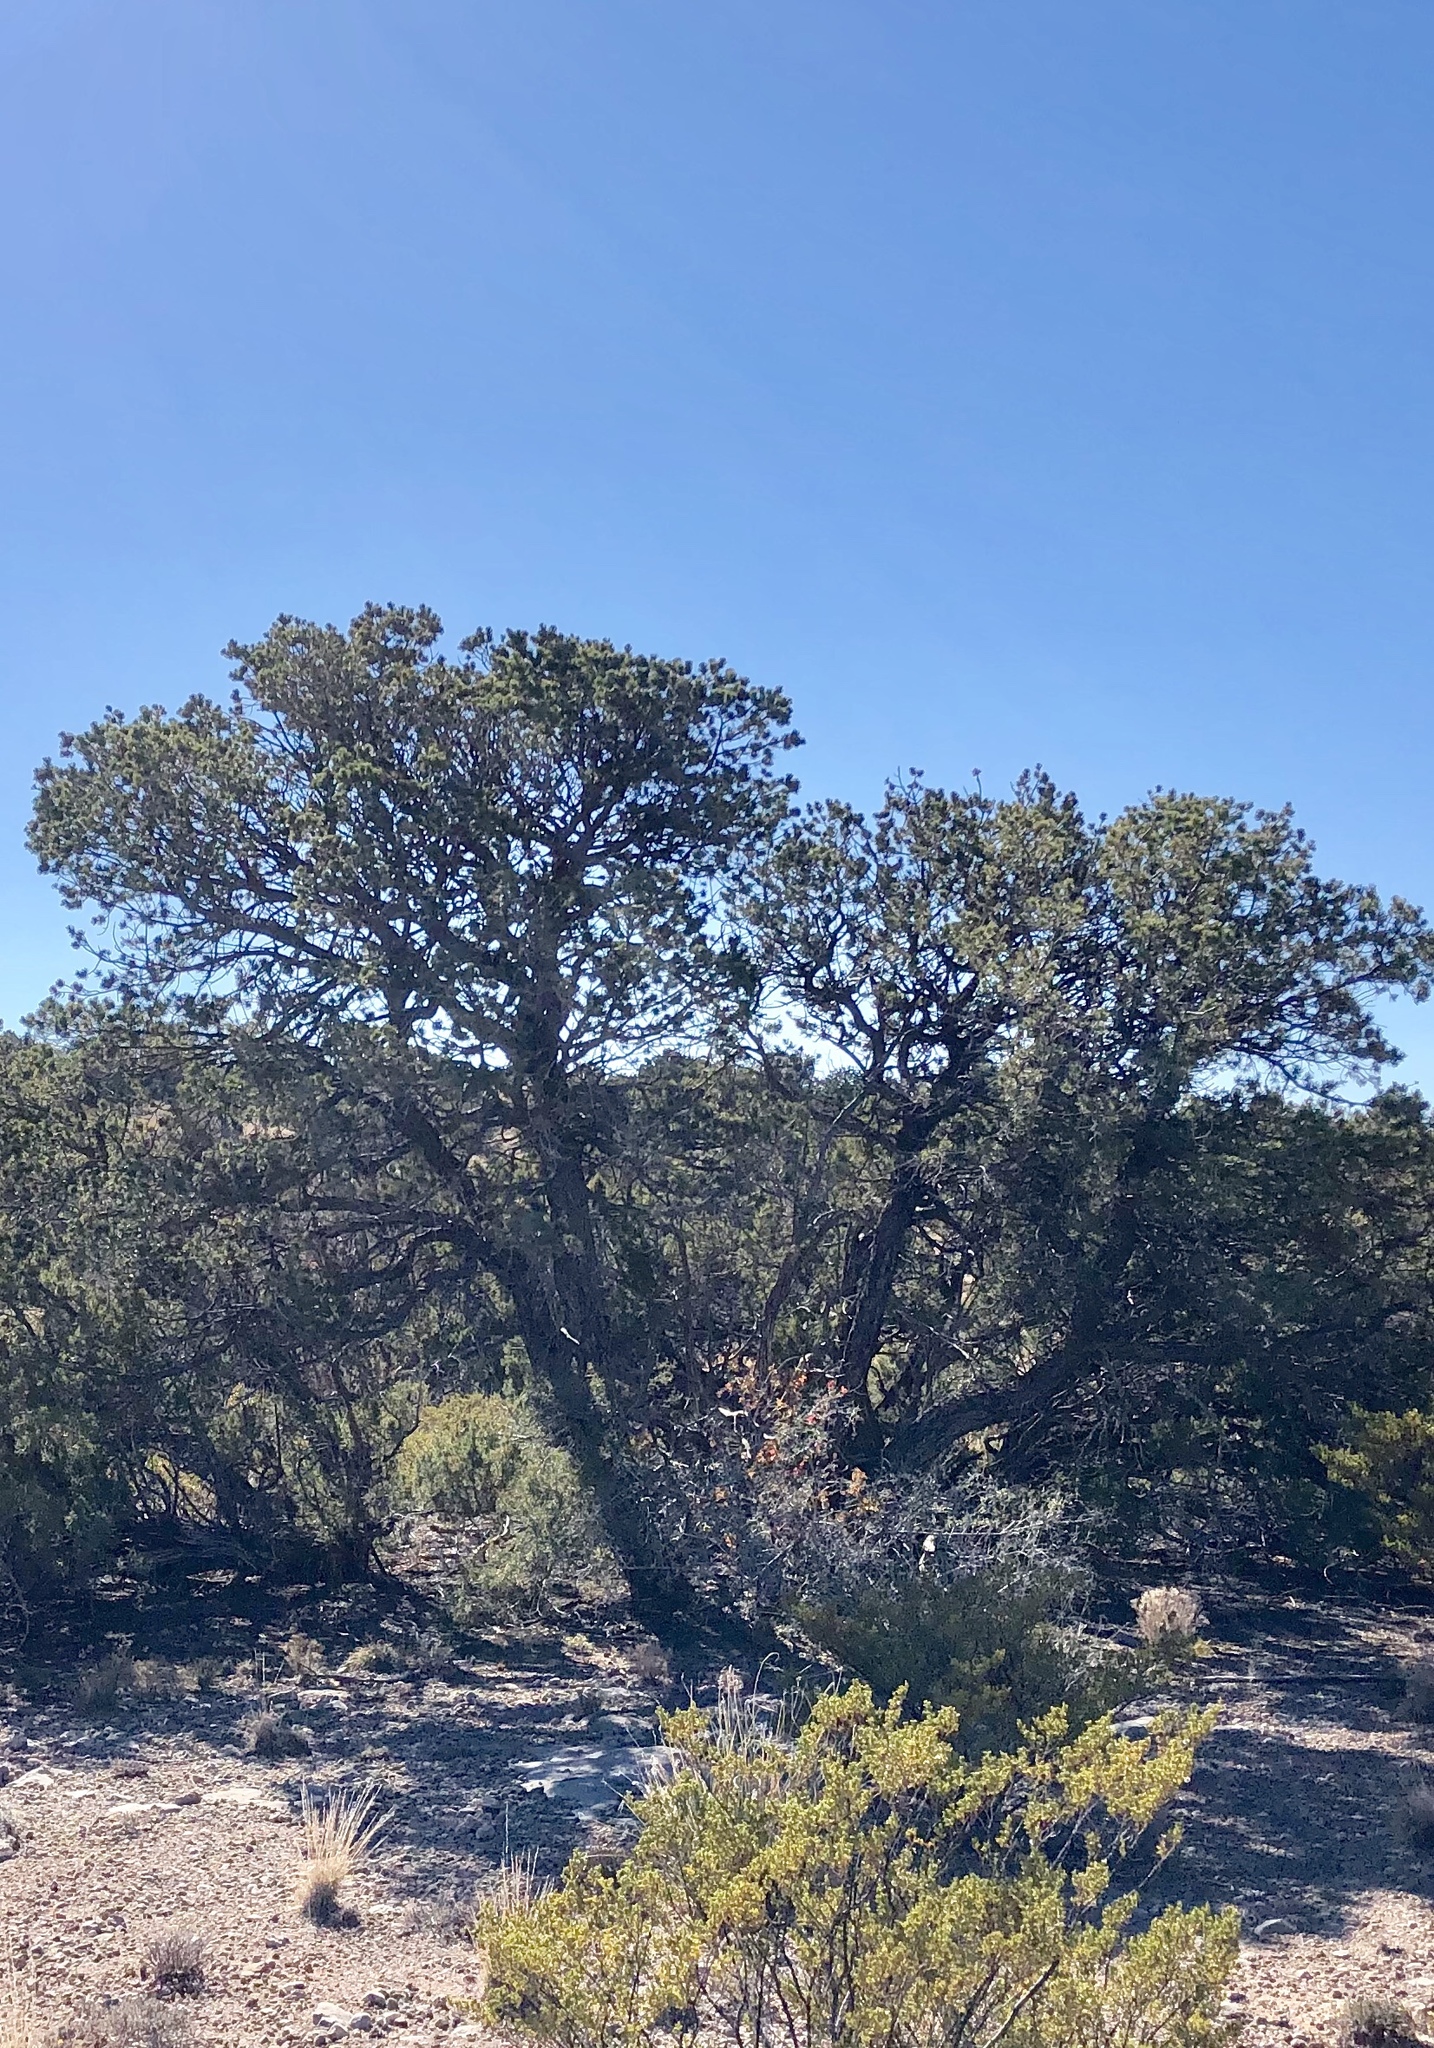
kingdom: Plantae
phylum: Tracheophyta
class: Pinopsida
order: Pinales
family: Pinaceae
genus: Pinus
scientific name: Pinus edulis
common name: Colorado pinyon
